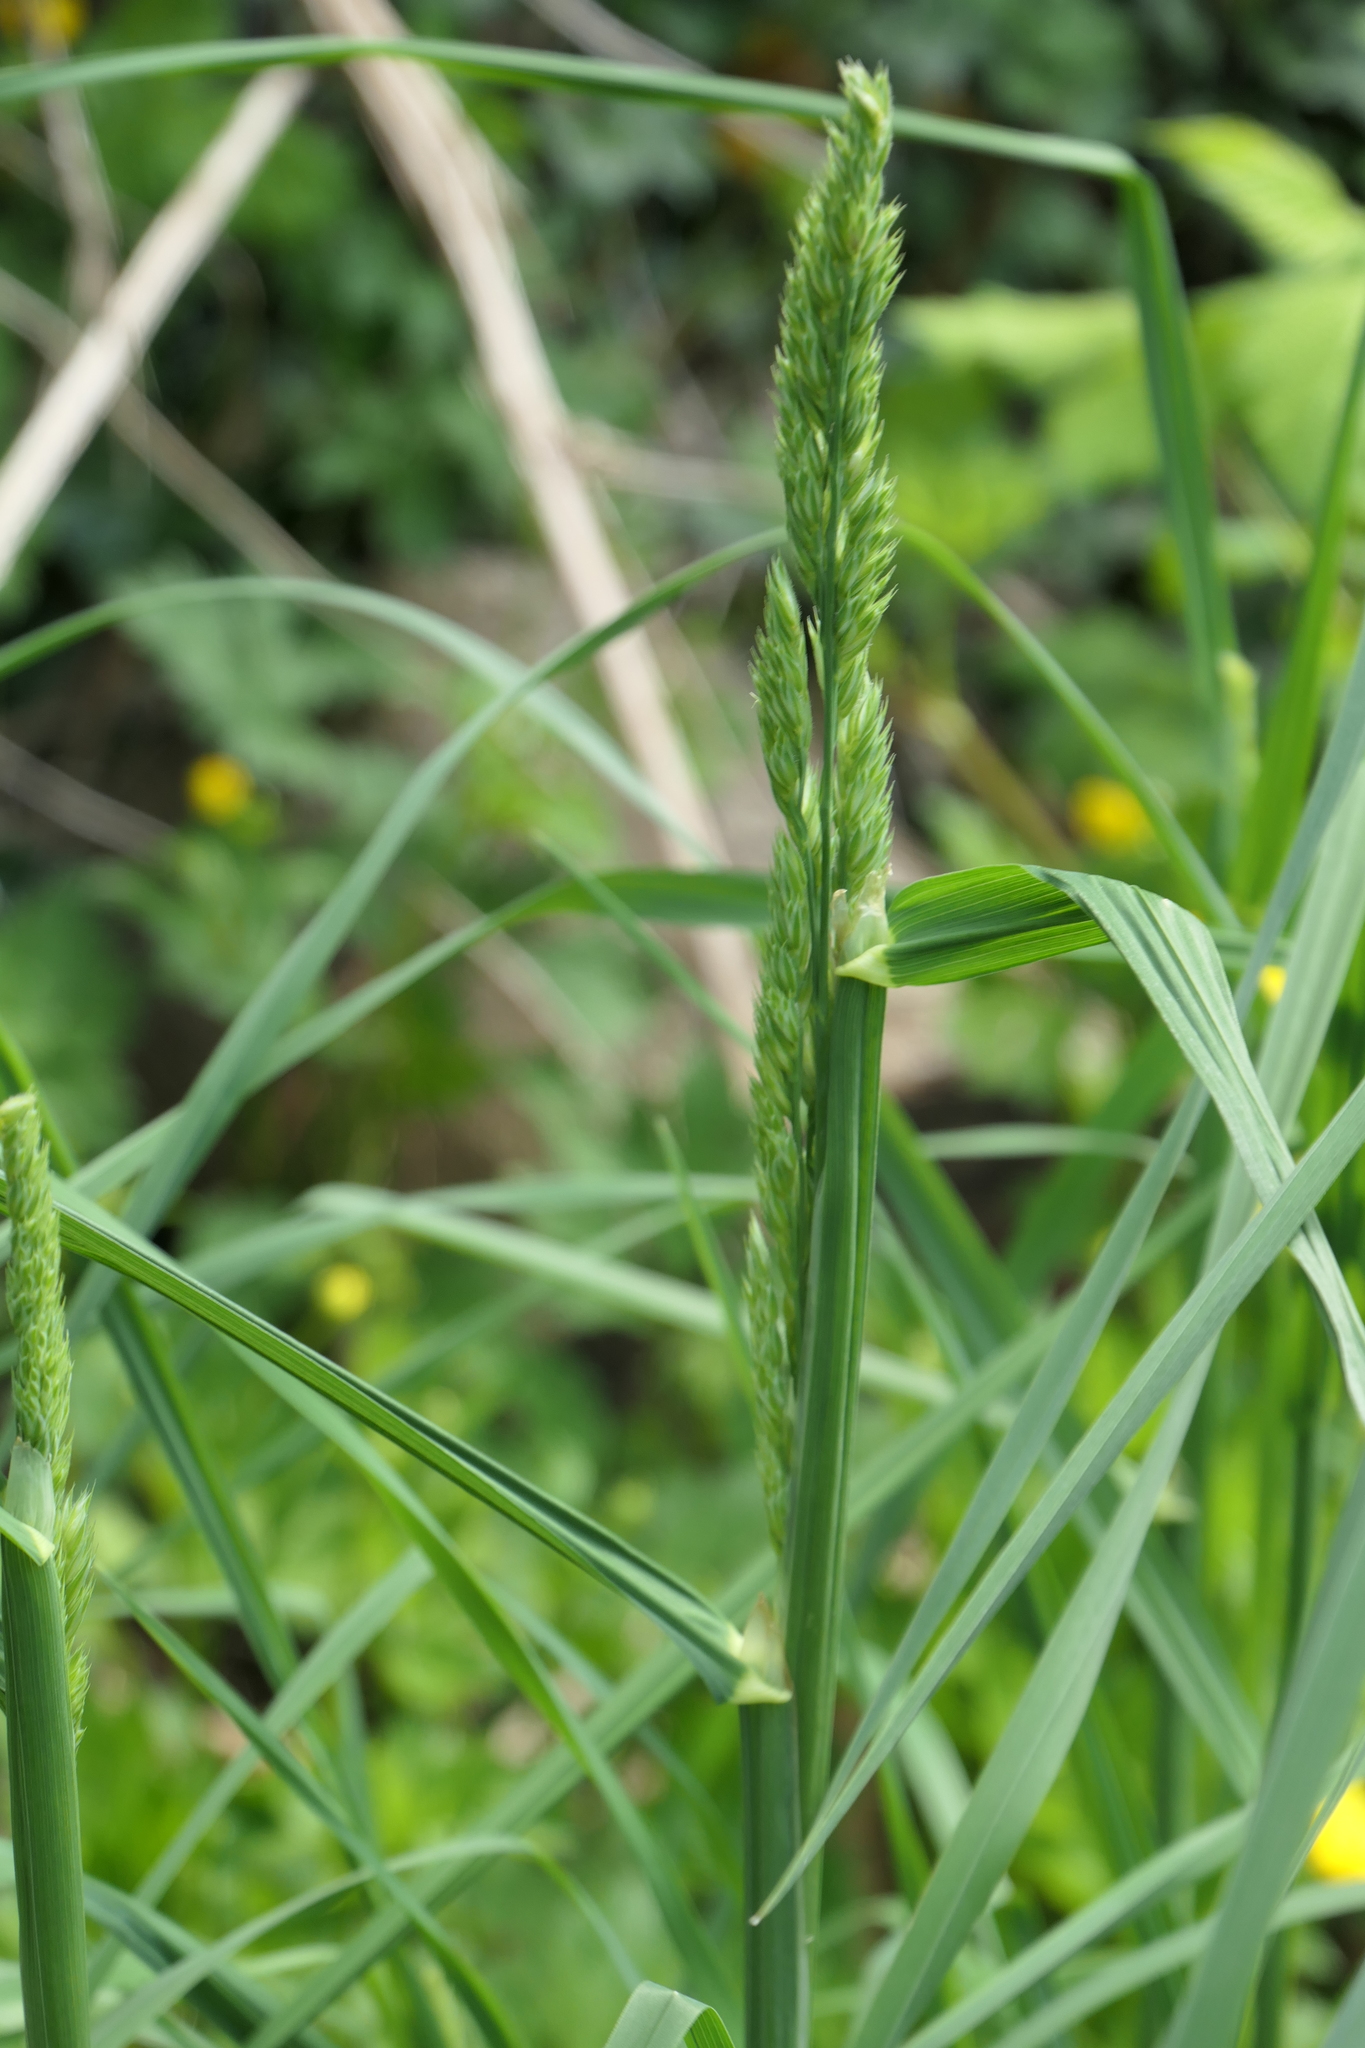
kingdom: Plantae
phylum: Tracheophyta
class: Liliopsida
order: Poales
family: Poaceae
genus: Dactylis
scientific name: Dactylis glomerata
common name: Orchardgrass
